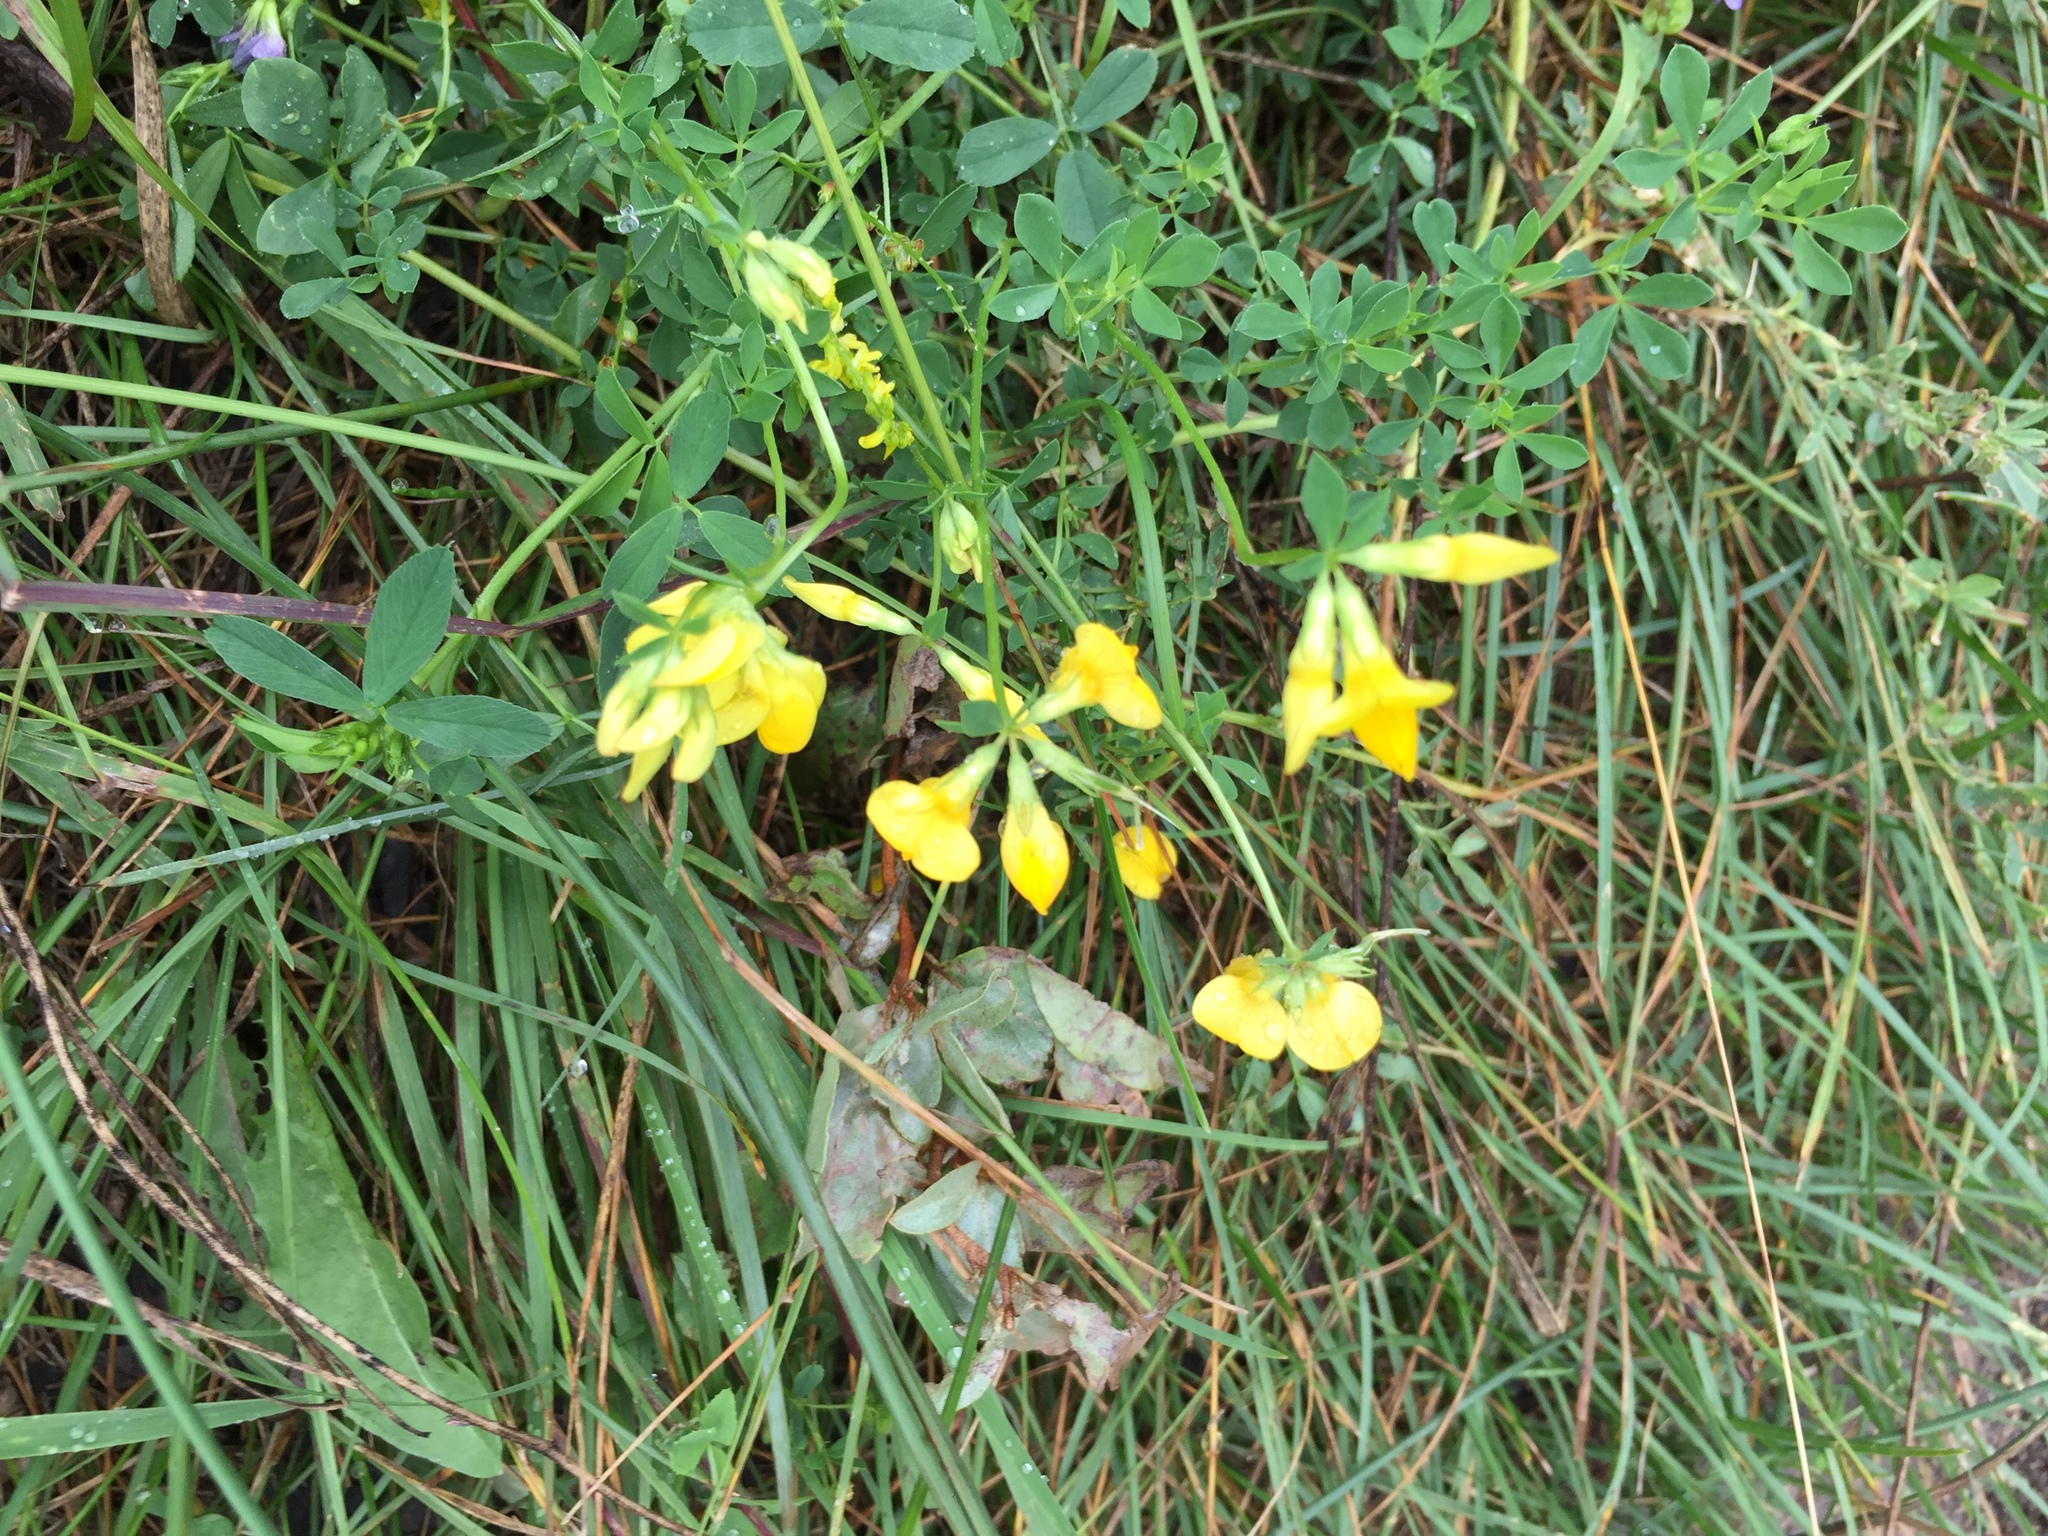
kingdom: Plantae
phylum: Tracheophyta
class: Magnoliopsida
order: Fabales
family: Fabaceae
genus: Lotus
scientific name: Lotus corniculatus
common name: Common bird's-foot-trefoil
